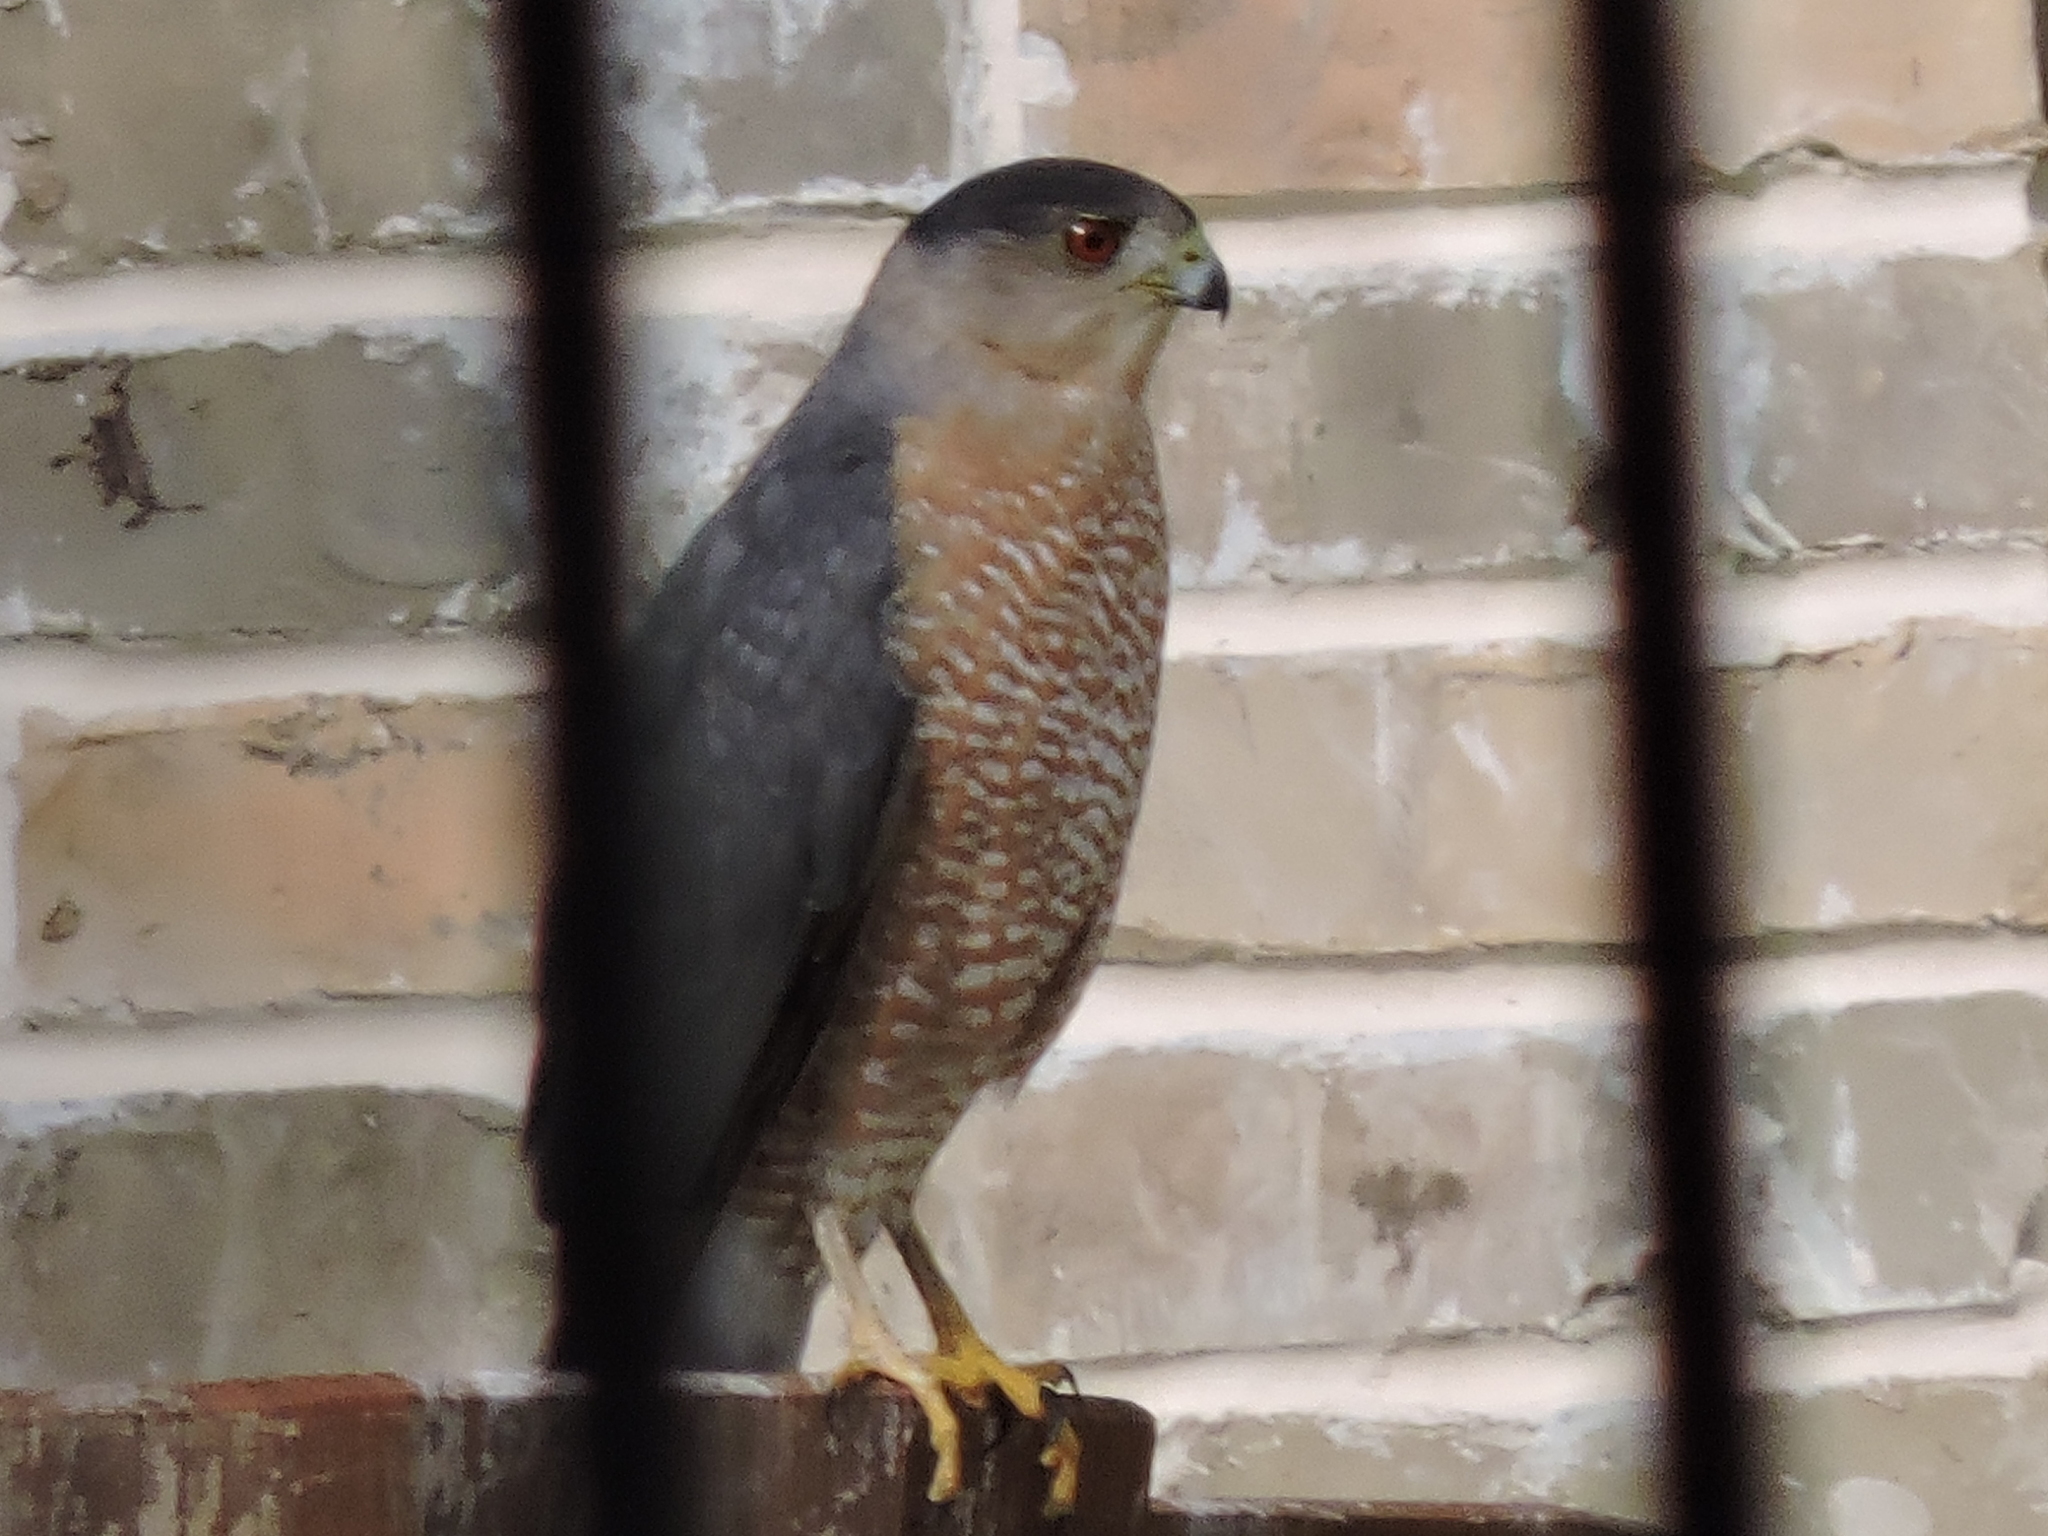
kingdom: Animalia
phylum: Chordata
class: Aves
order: Accipitriformes
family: Accipitridae
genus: Accipiter
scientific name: Accipiter cooperii
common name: Cooper's hawk
